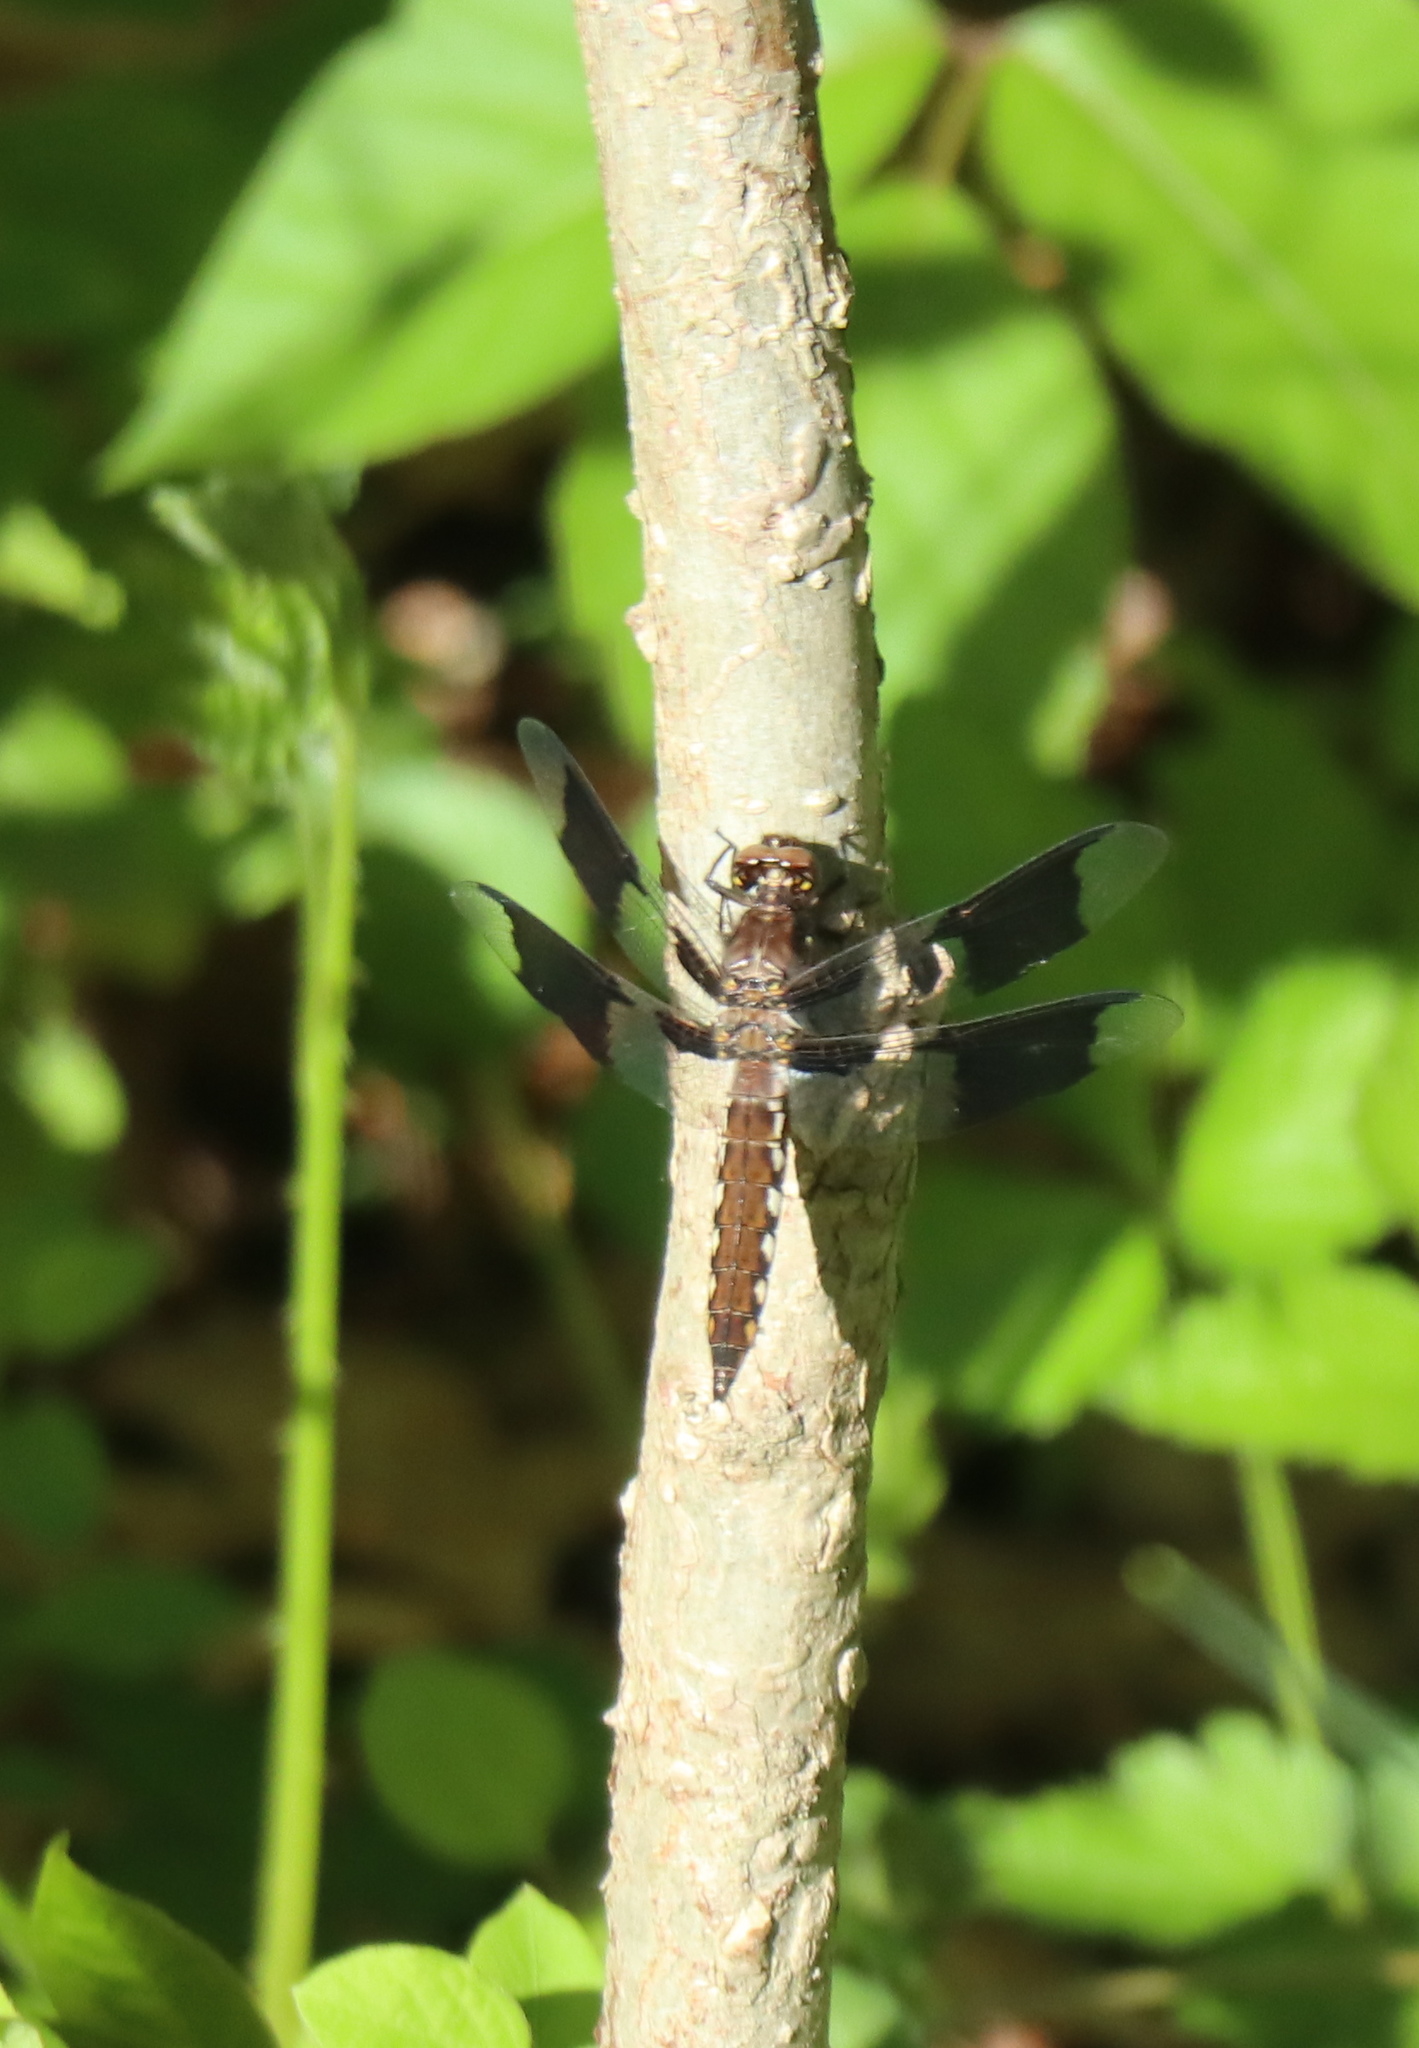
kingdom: Animalia
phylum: Arthropoda
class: Insecta
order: Odonata
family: Libellulidae
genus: Plathemis
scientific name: Plathemis lydia
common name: Common whitetail
